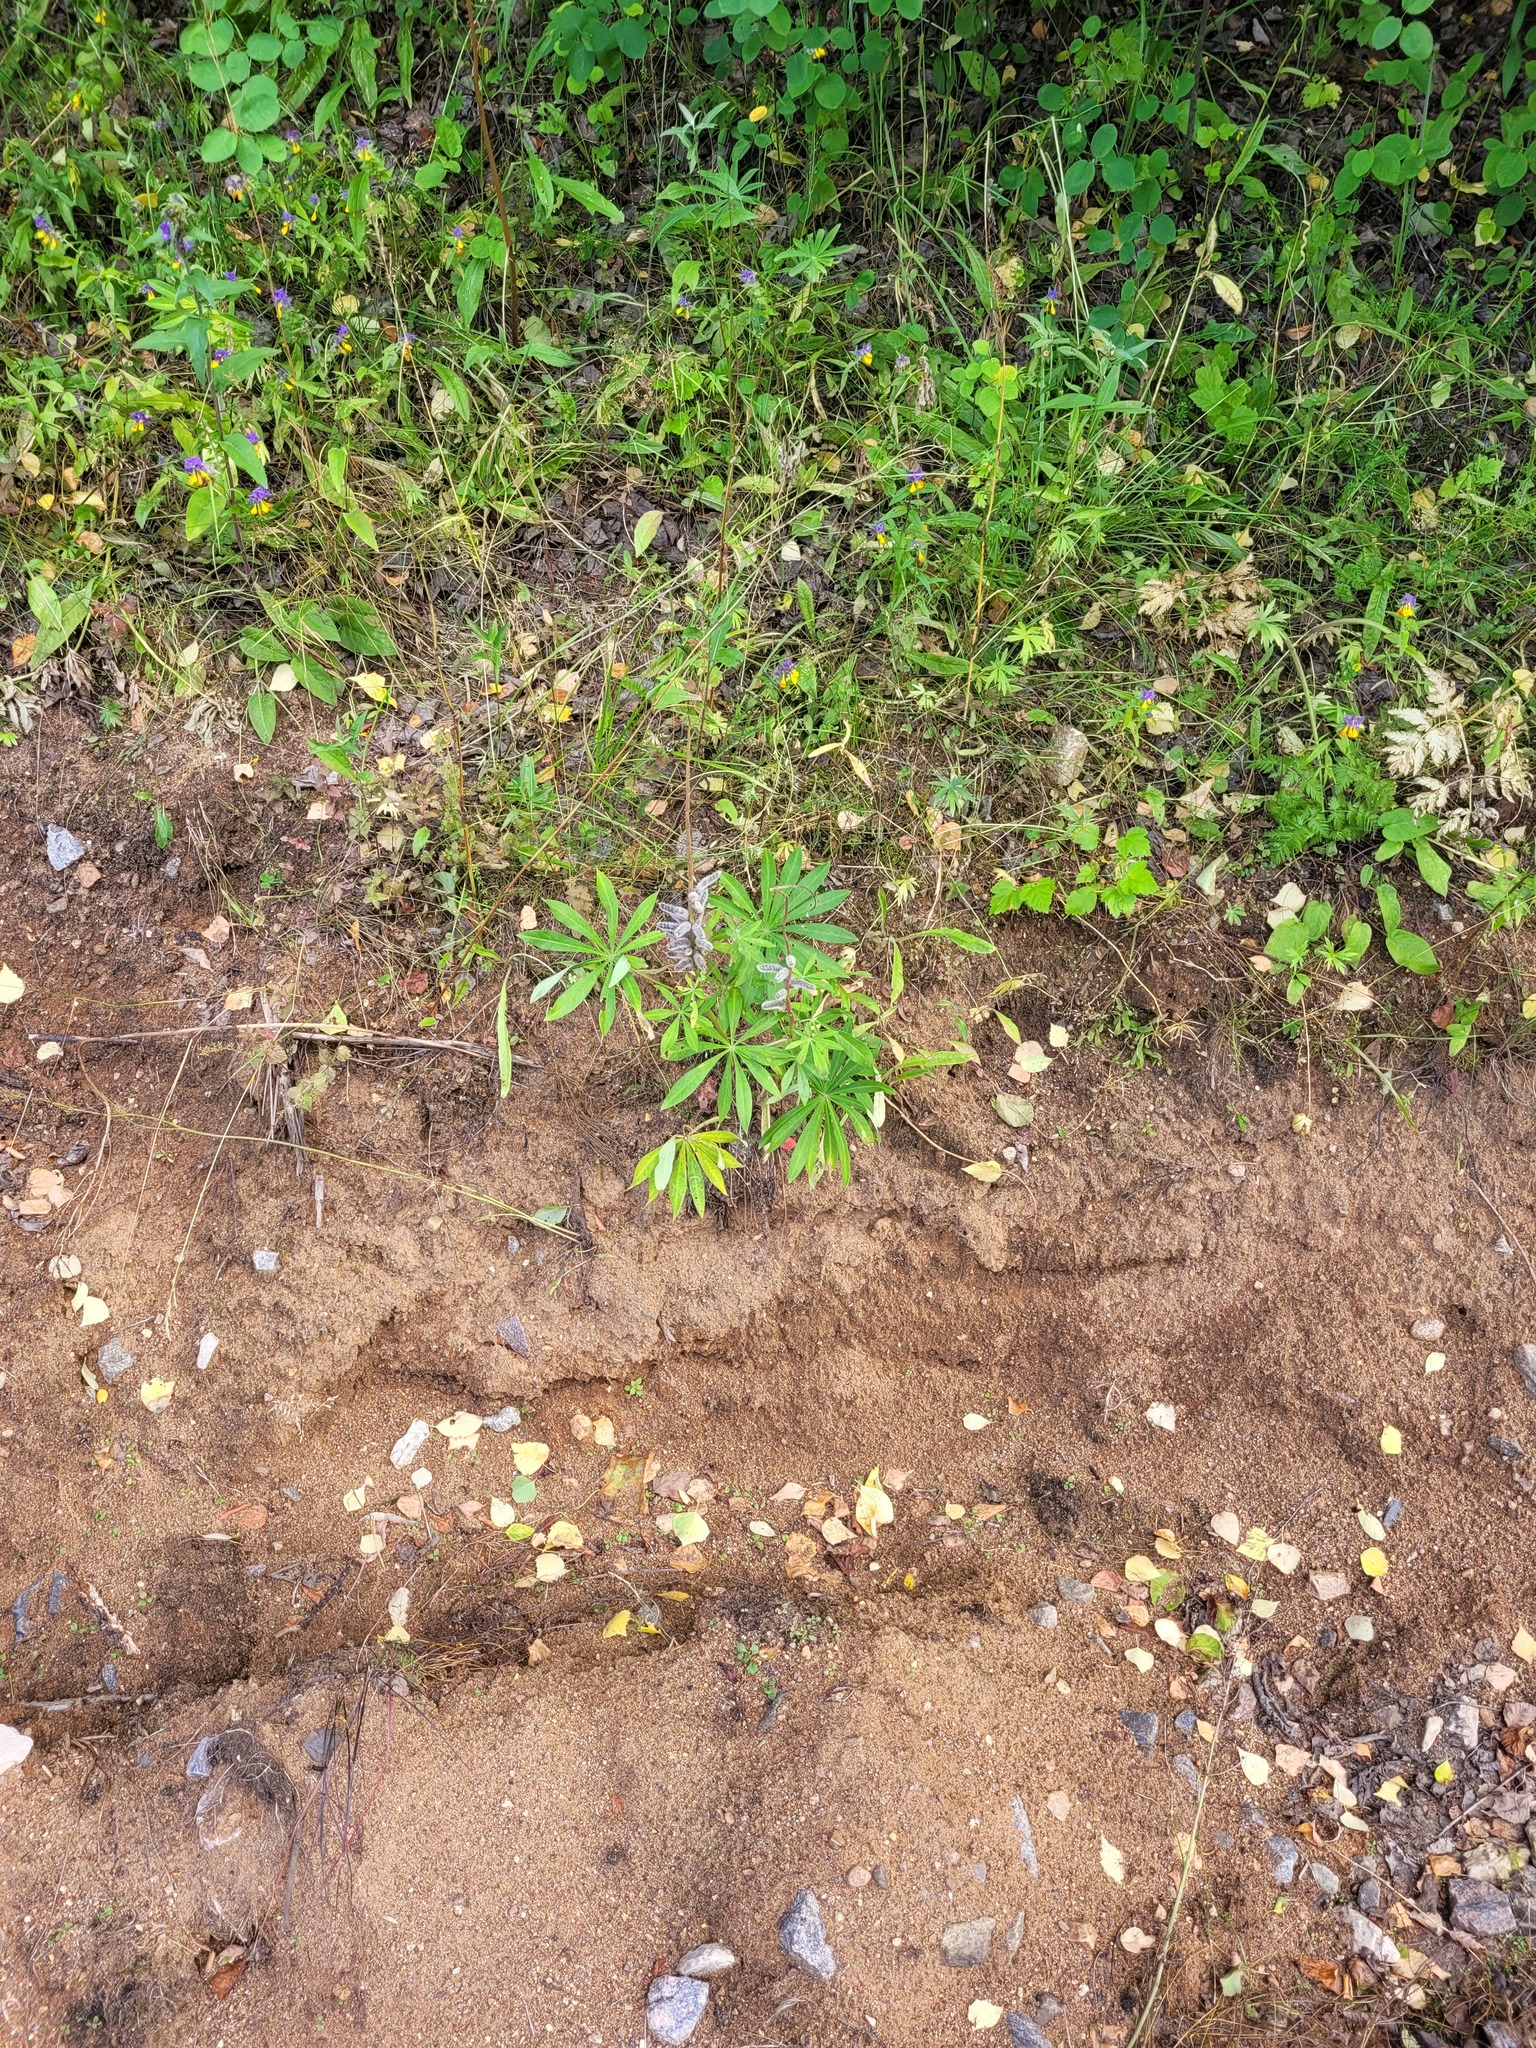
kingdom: Plantae
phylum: Tracheophyta
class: Magnoliopsida
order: Fabales
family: Fabaceae
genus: Lupinus
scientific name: Lupinus polyphyllus
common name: Garden lupin
